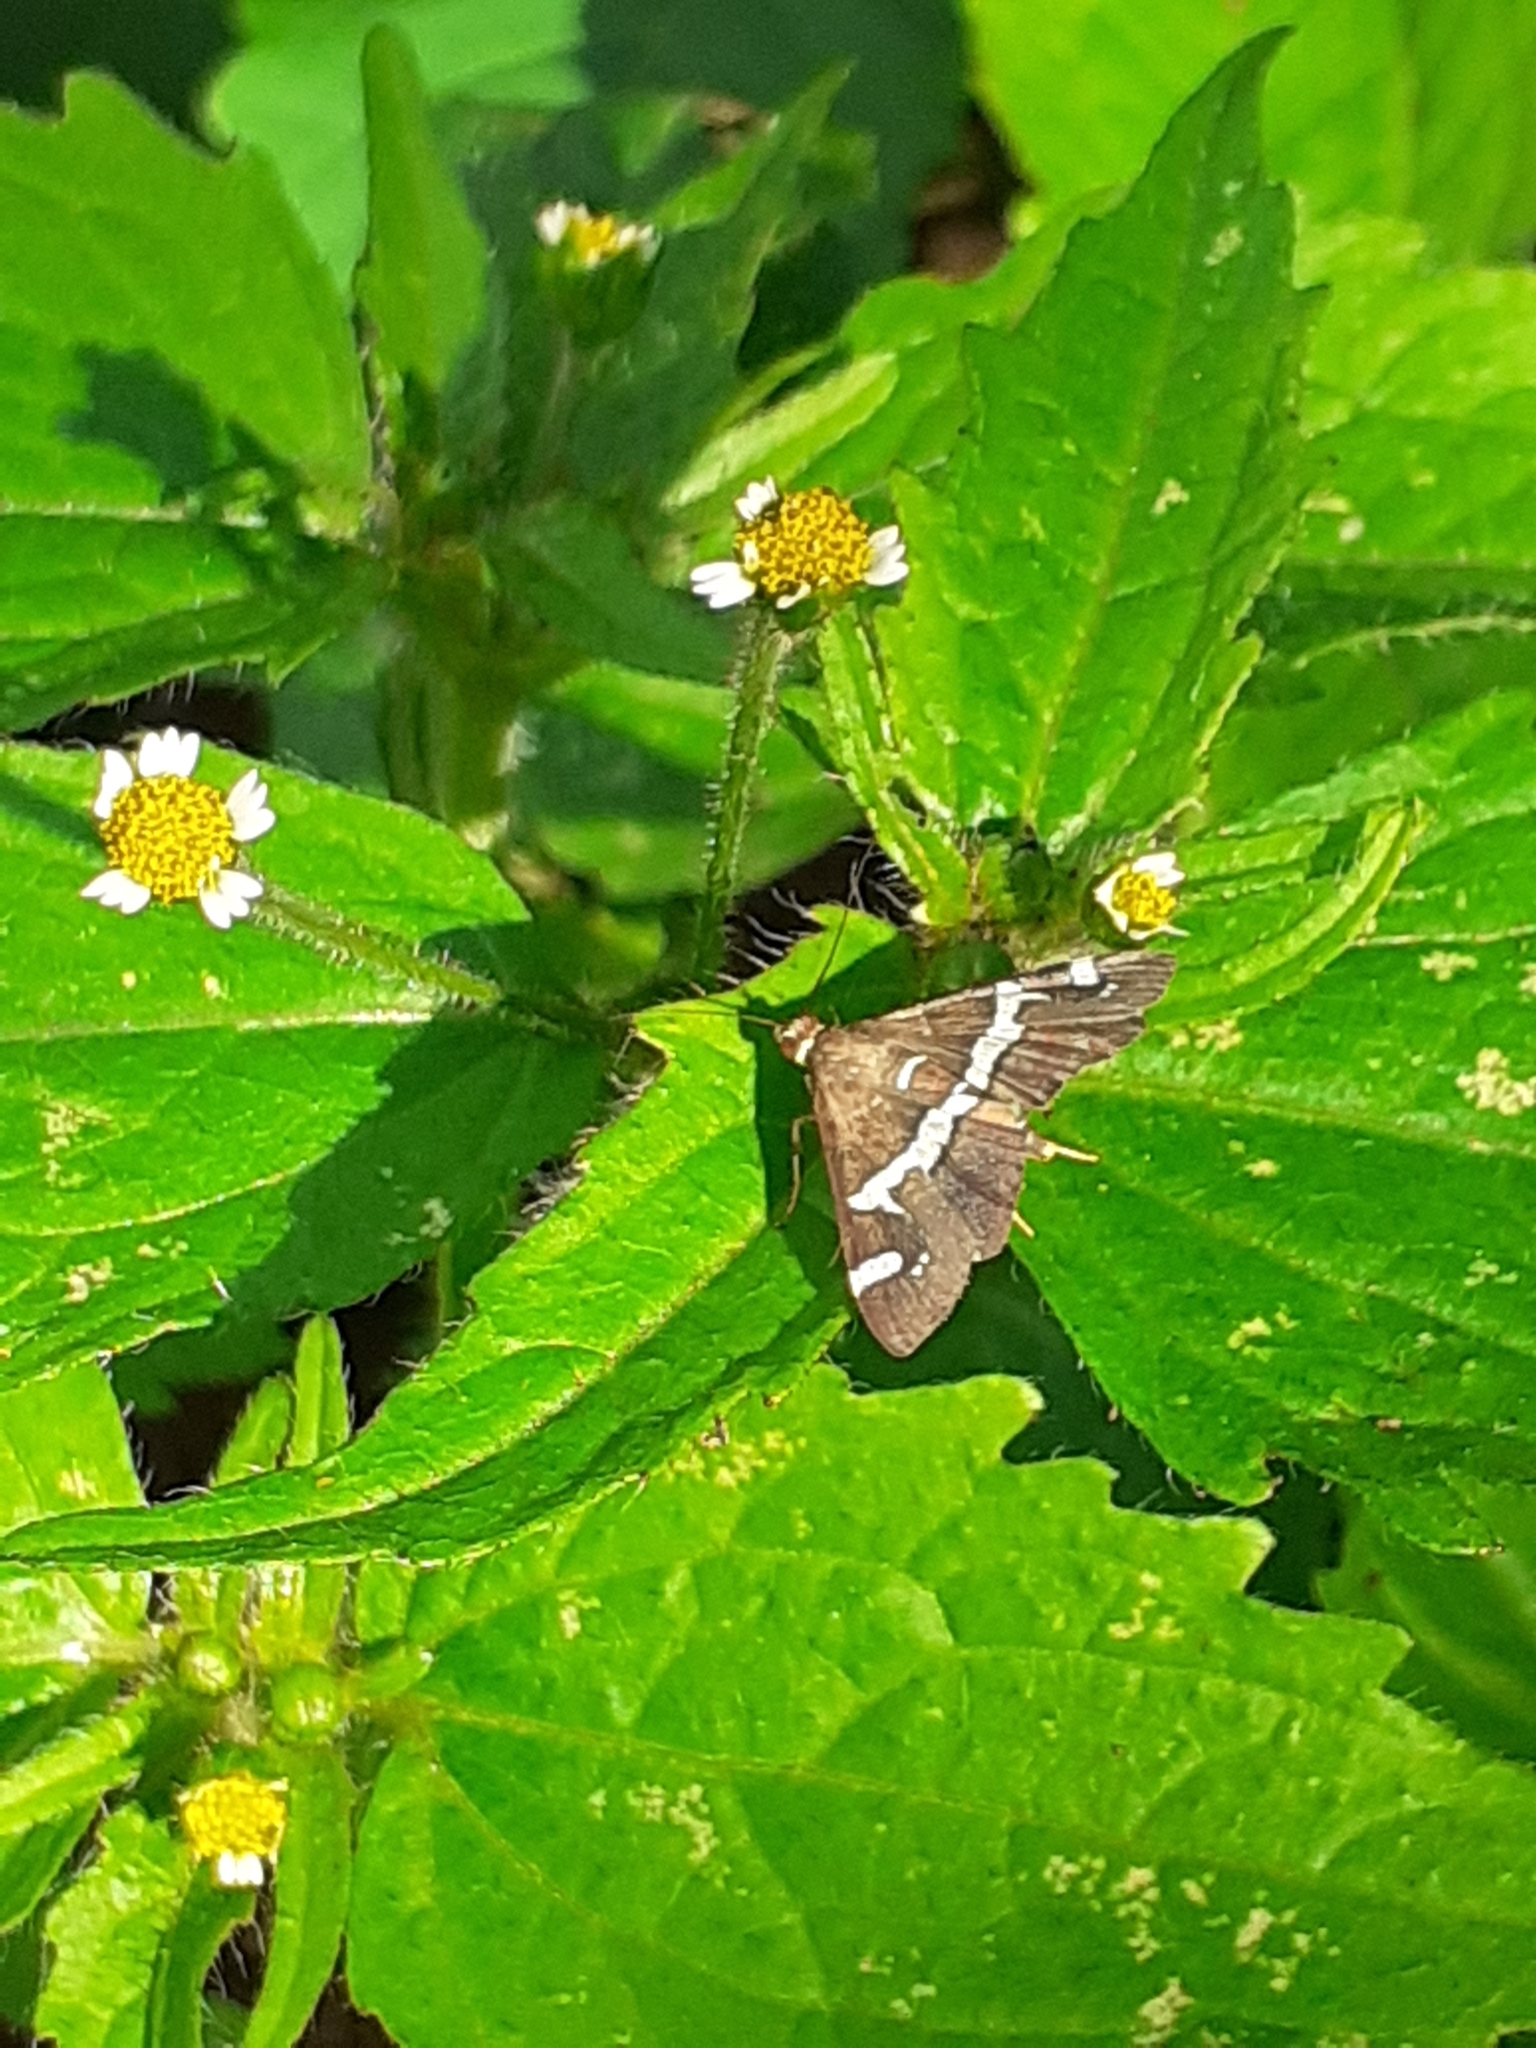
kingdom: Animalia
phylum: Arthropoda
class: Insecta
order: Lepidoptera
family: Crambidae
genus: Spoladea
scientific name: Spoladea recurvalis
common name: Beet webworm moth
